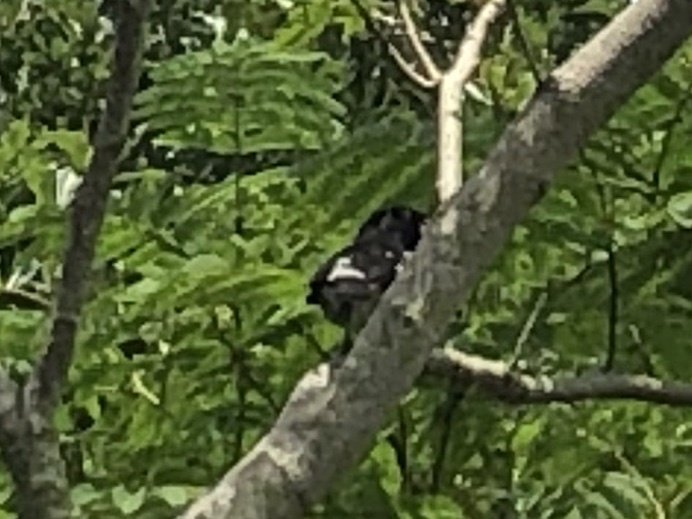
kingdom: Animalia
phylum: Chordata
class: Aves
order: Passeriformes
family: Cardinalidae
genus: Pheucticus
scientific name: Pheucticus ludovicianus
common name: Rose-breasted grosbeak
